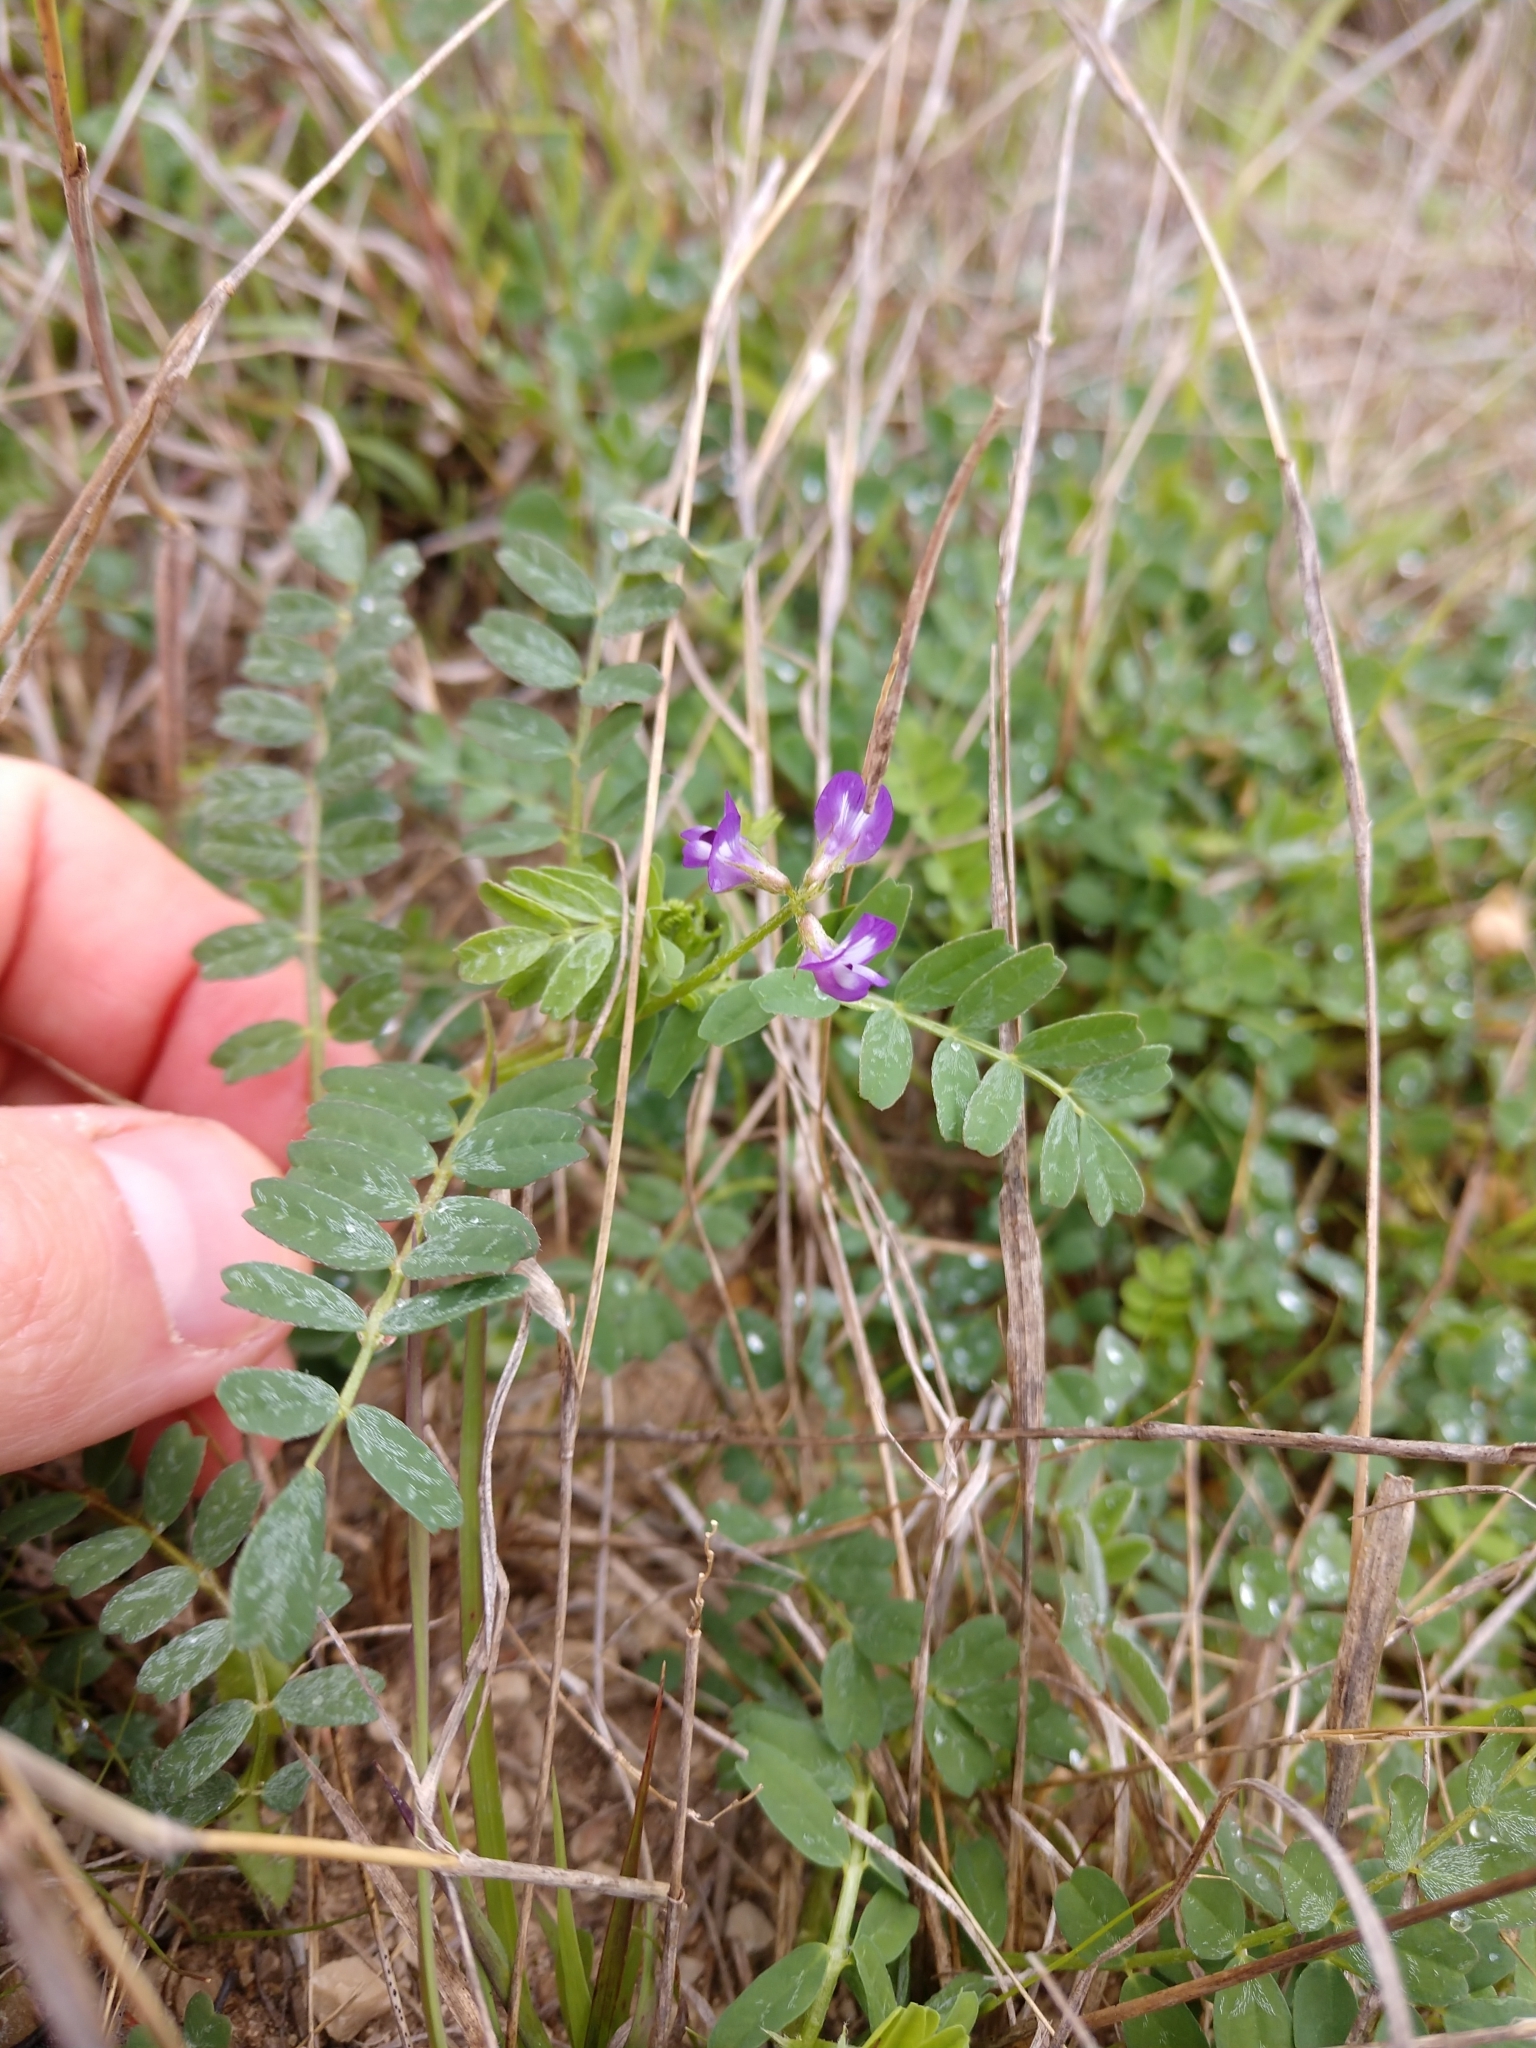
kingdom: Plantae
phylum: Tracheophyta
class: Magnoliopsida
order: Fabales
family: Fabaceae
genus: Astragalus
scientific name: Astragalus nuttallianus
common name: Smallflowered milkvetch
